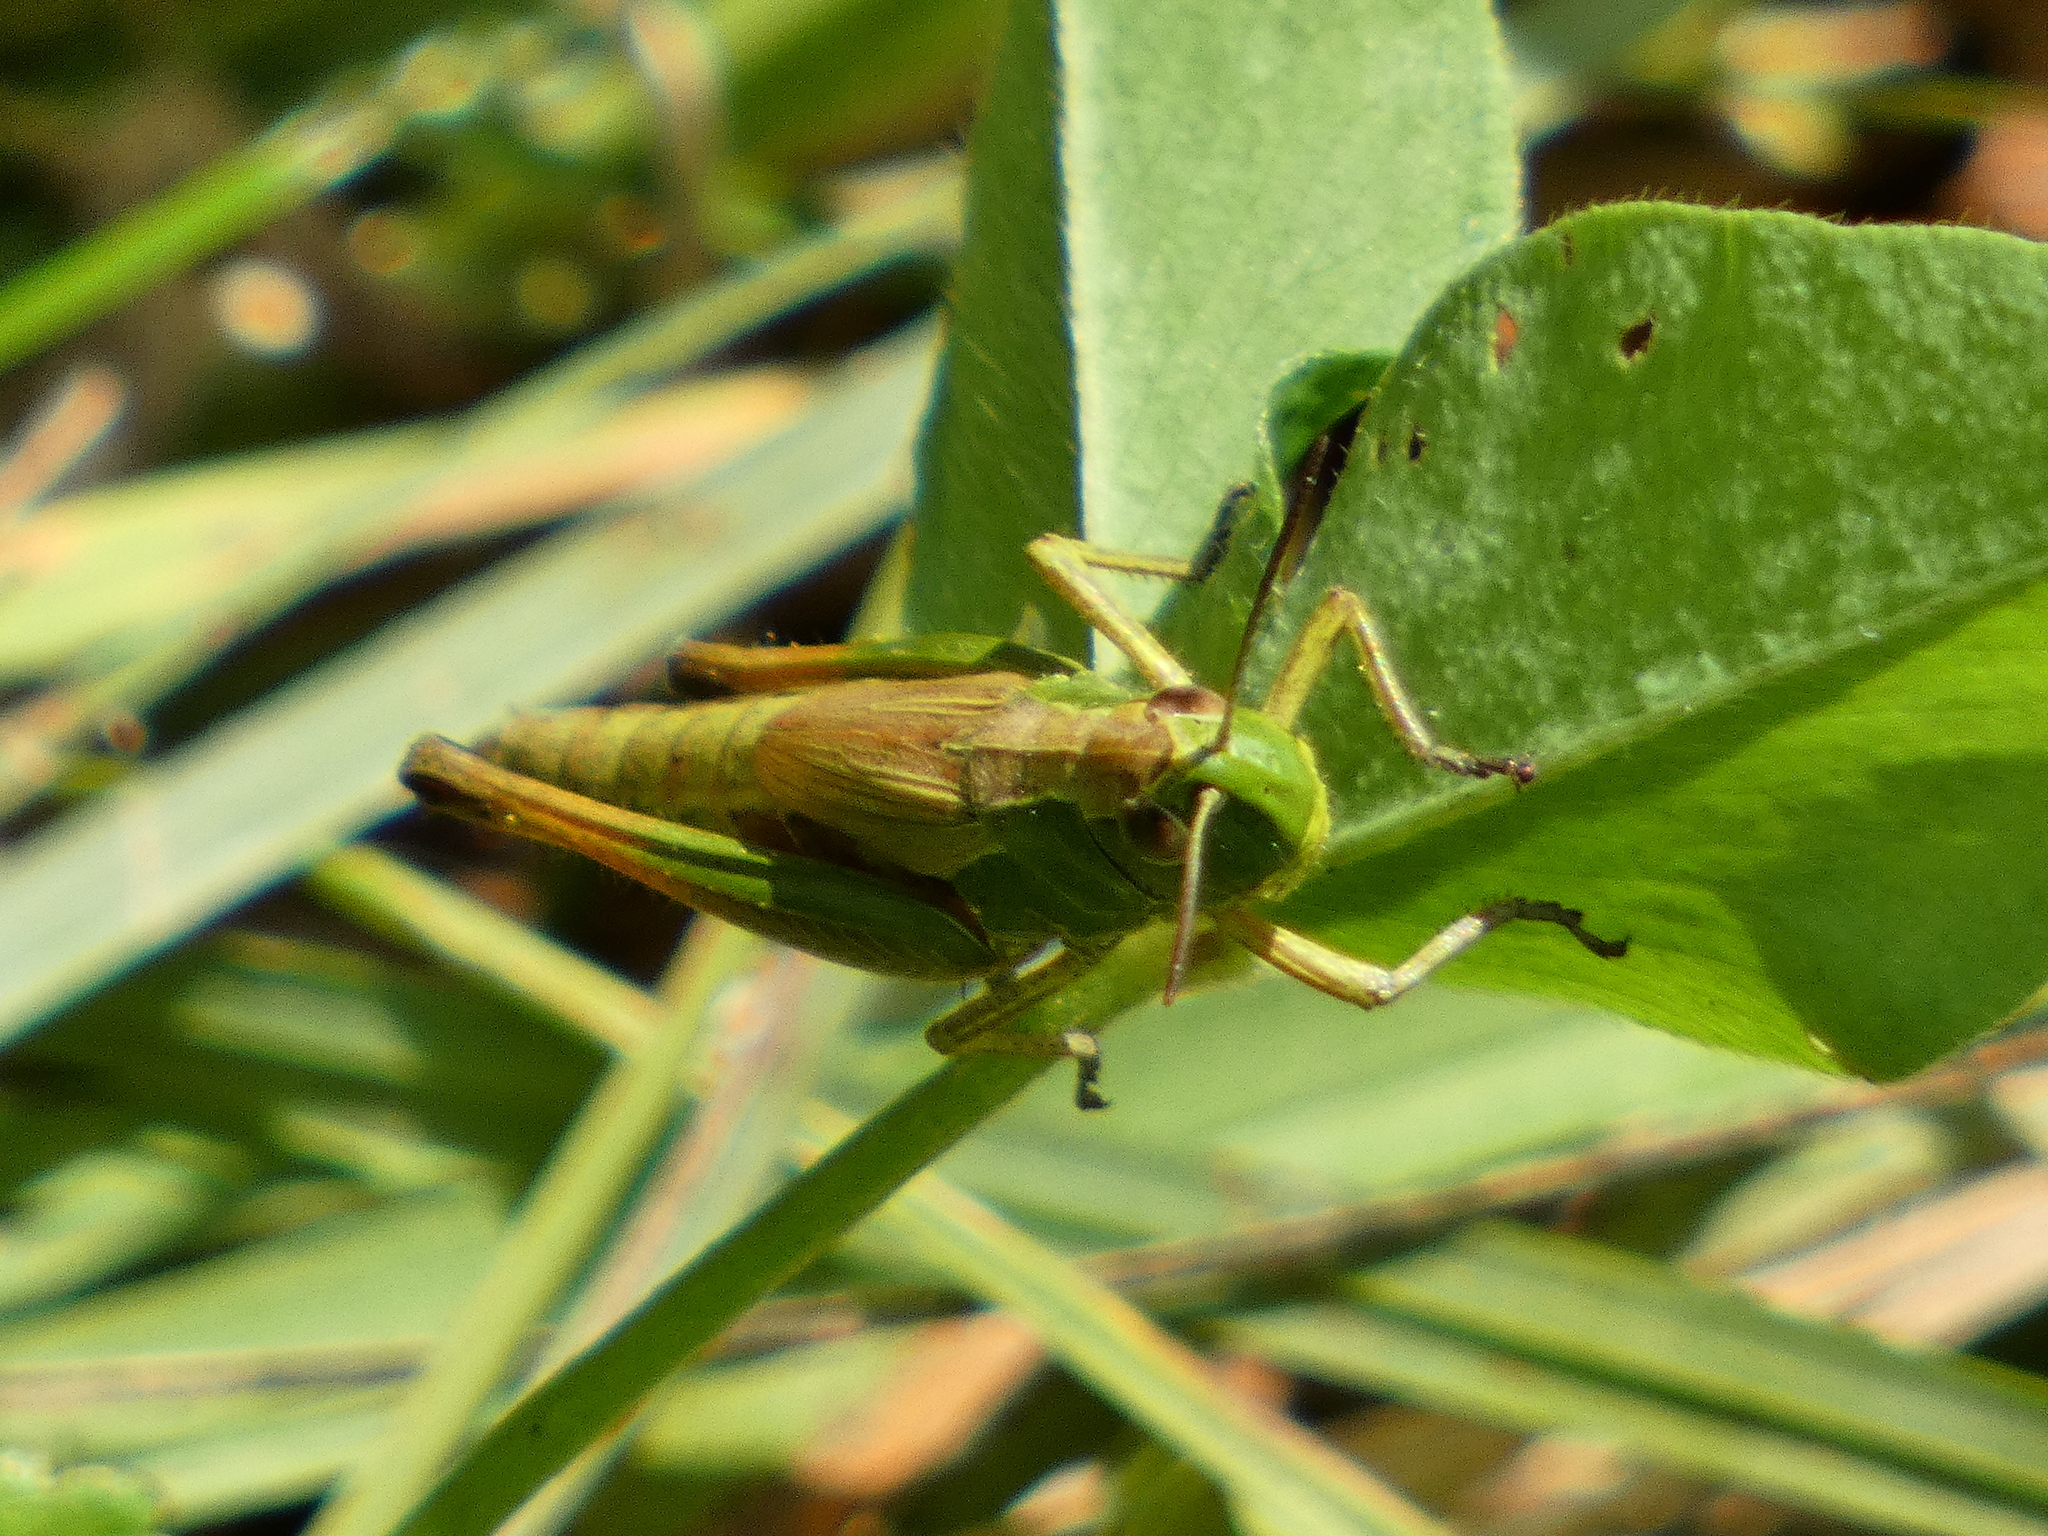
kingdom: Animalia
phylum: Arthropoda
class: Insecta
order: Orthoptera
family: Acrididae
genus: Pseudochorthippus
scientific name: Pseudochorthippus parallelus
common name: Meadow grasshopper
